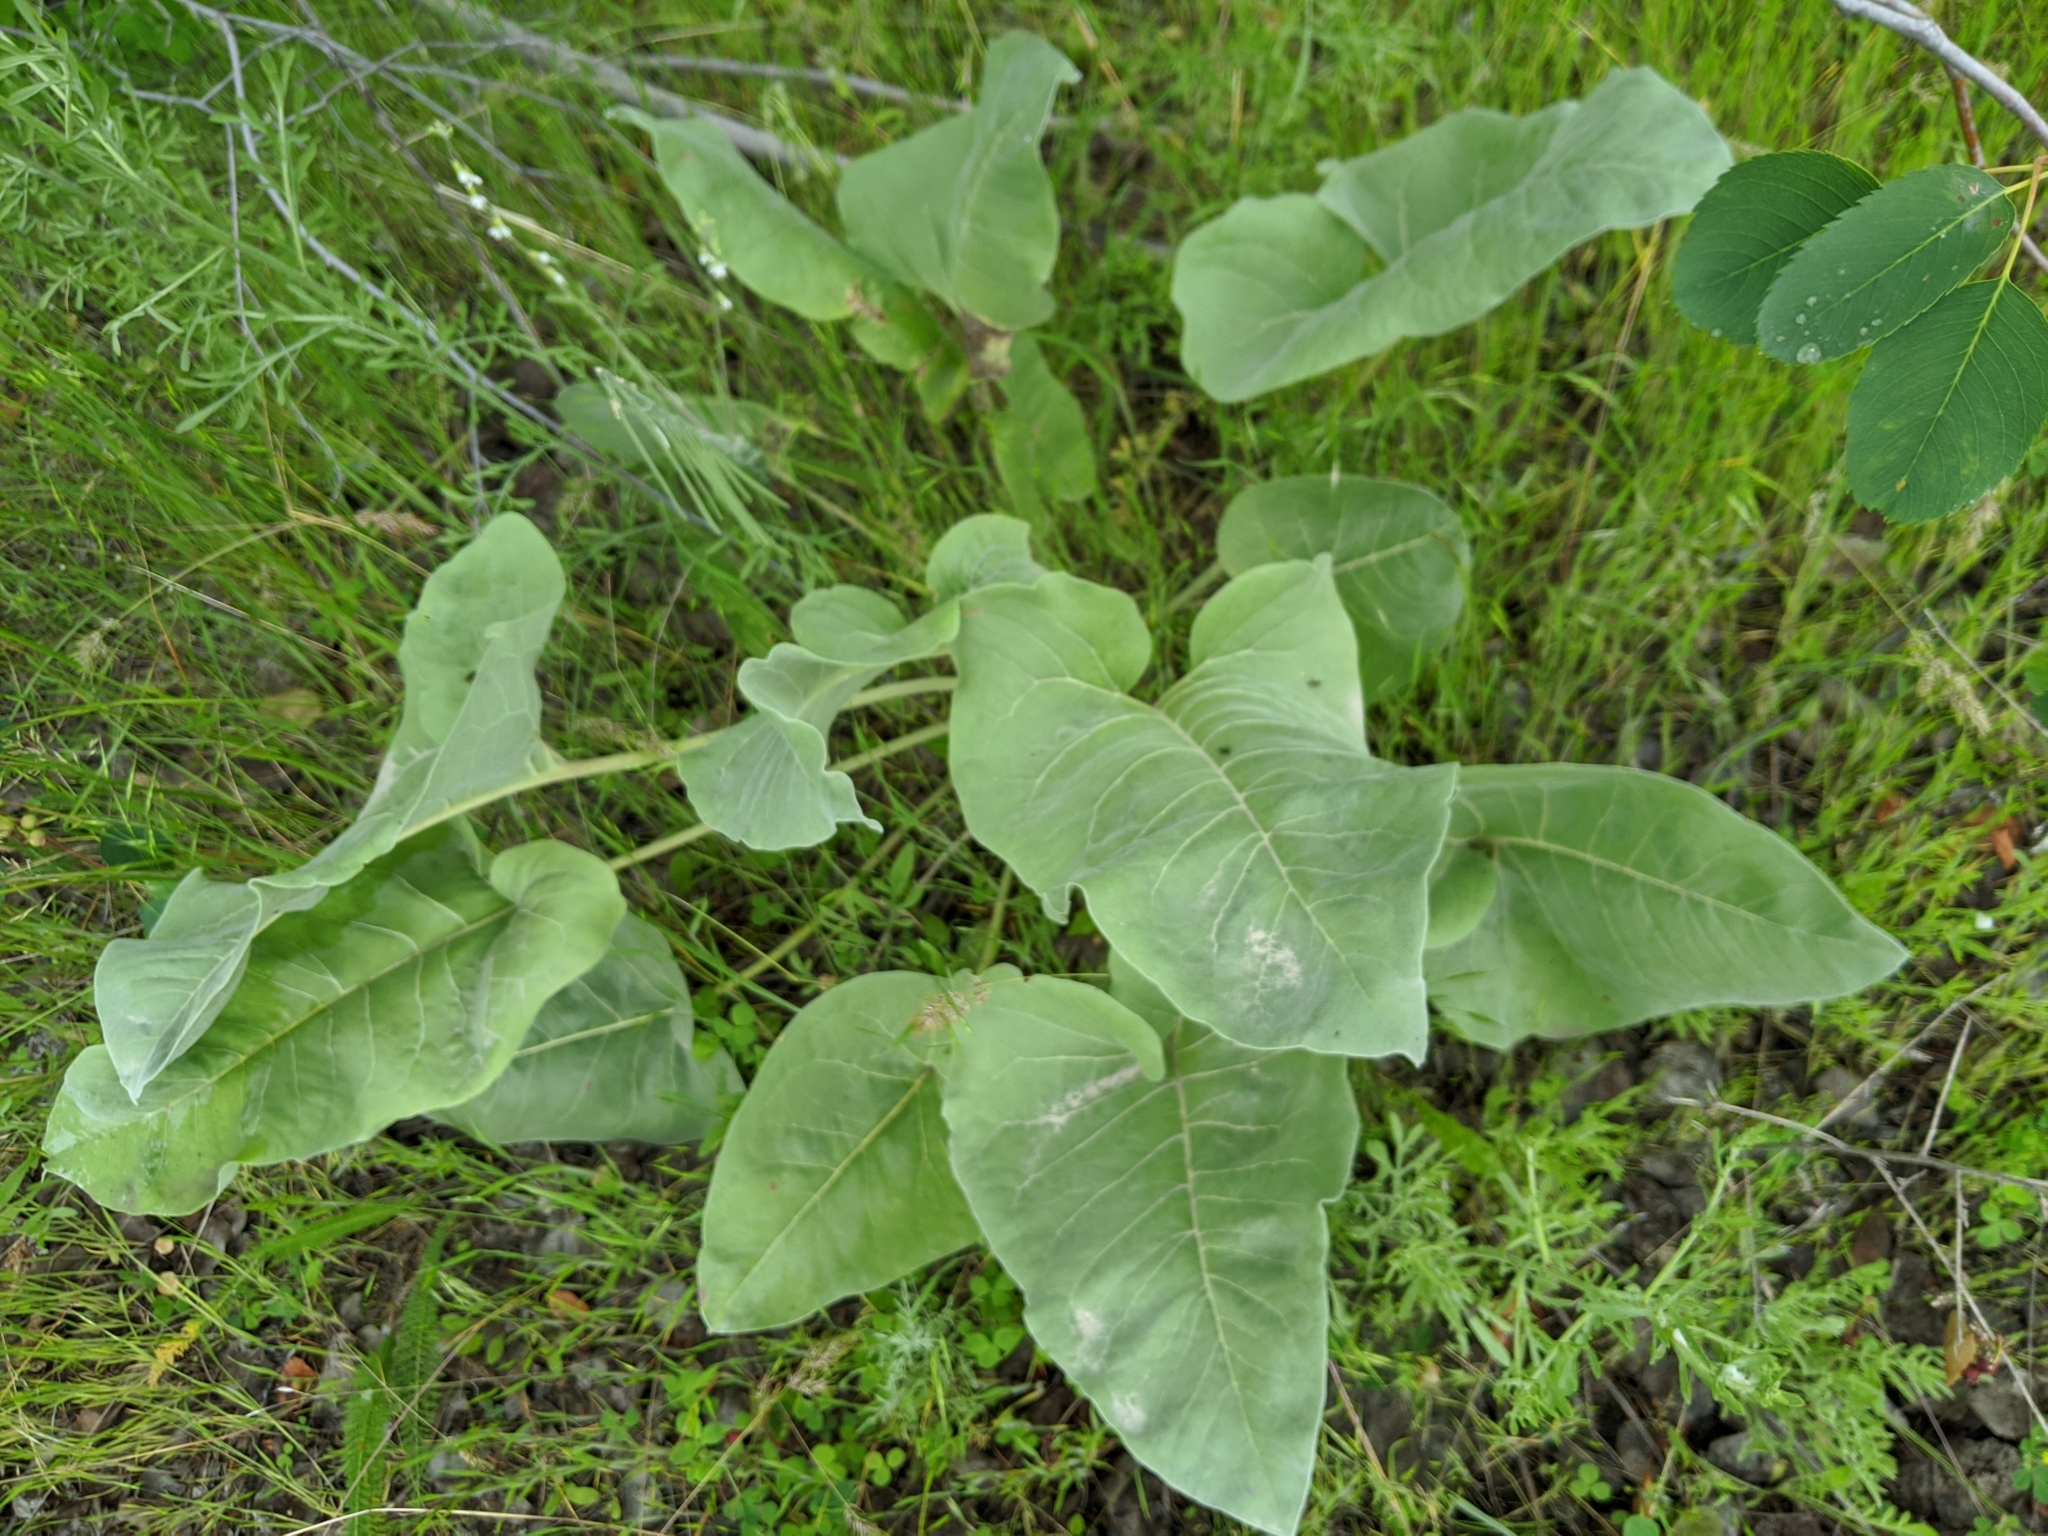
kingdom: Plantae
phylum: Tracheophyta
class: Magnoliopsida
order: Asterales
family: Asteraceae
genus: Wyethia
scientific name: Wyethia sagittata
